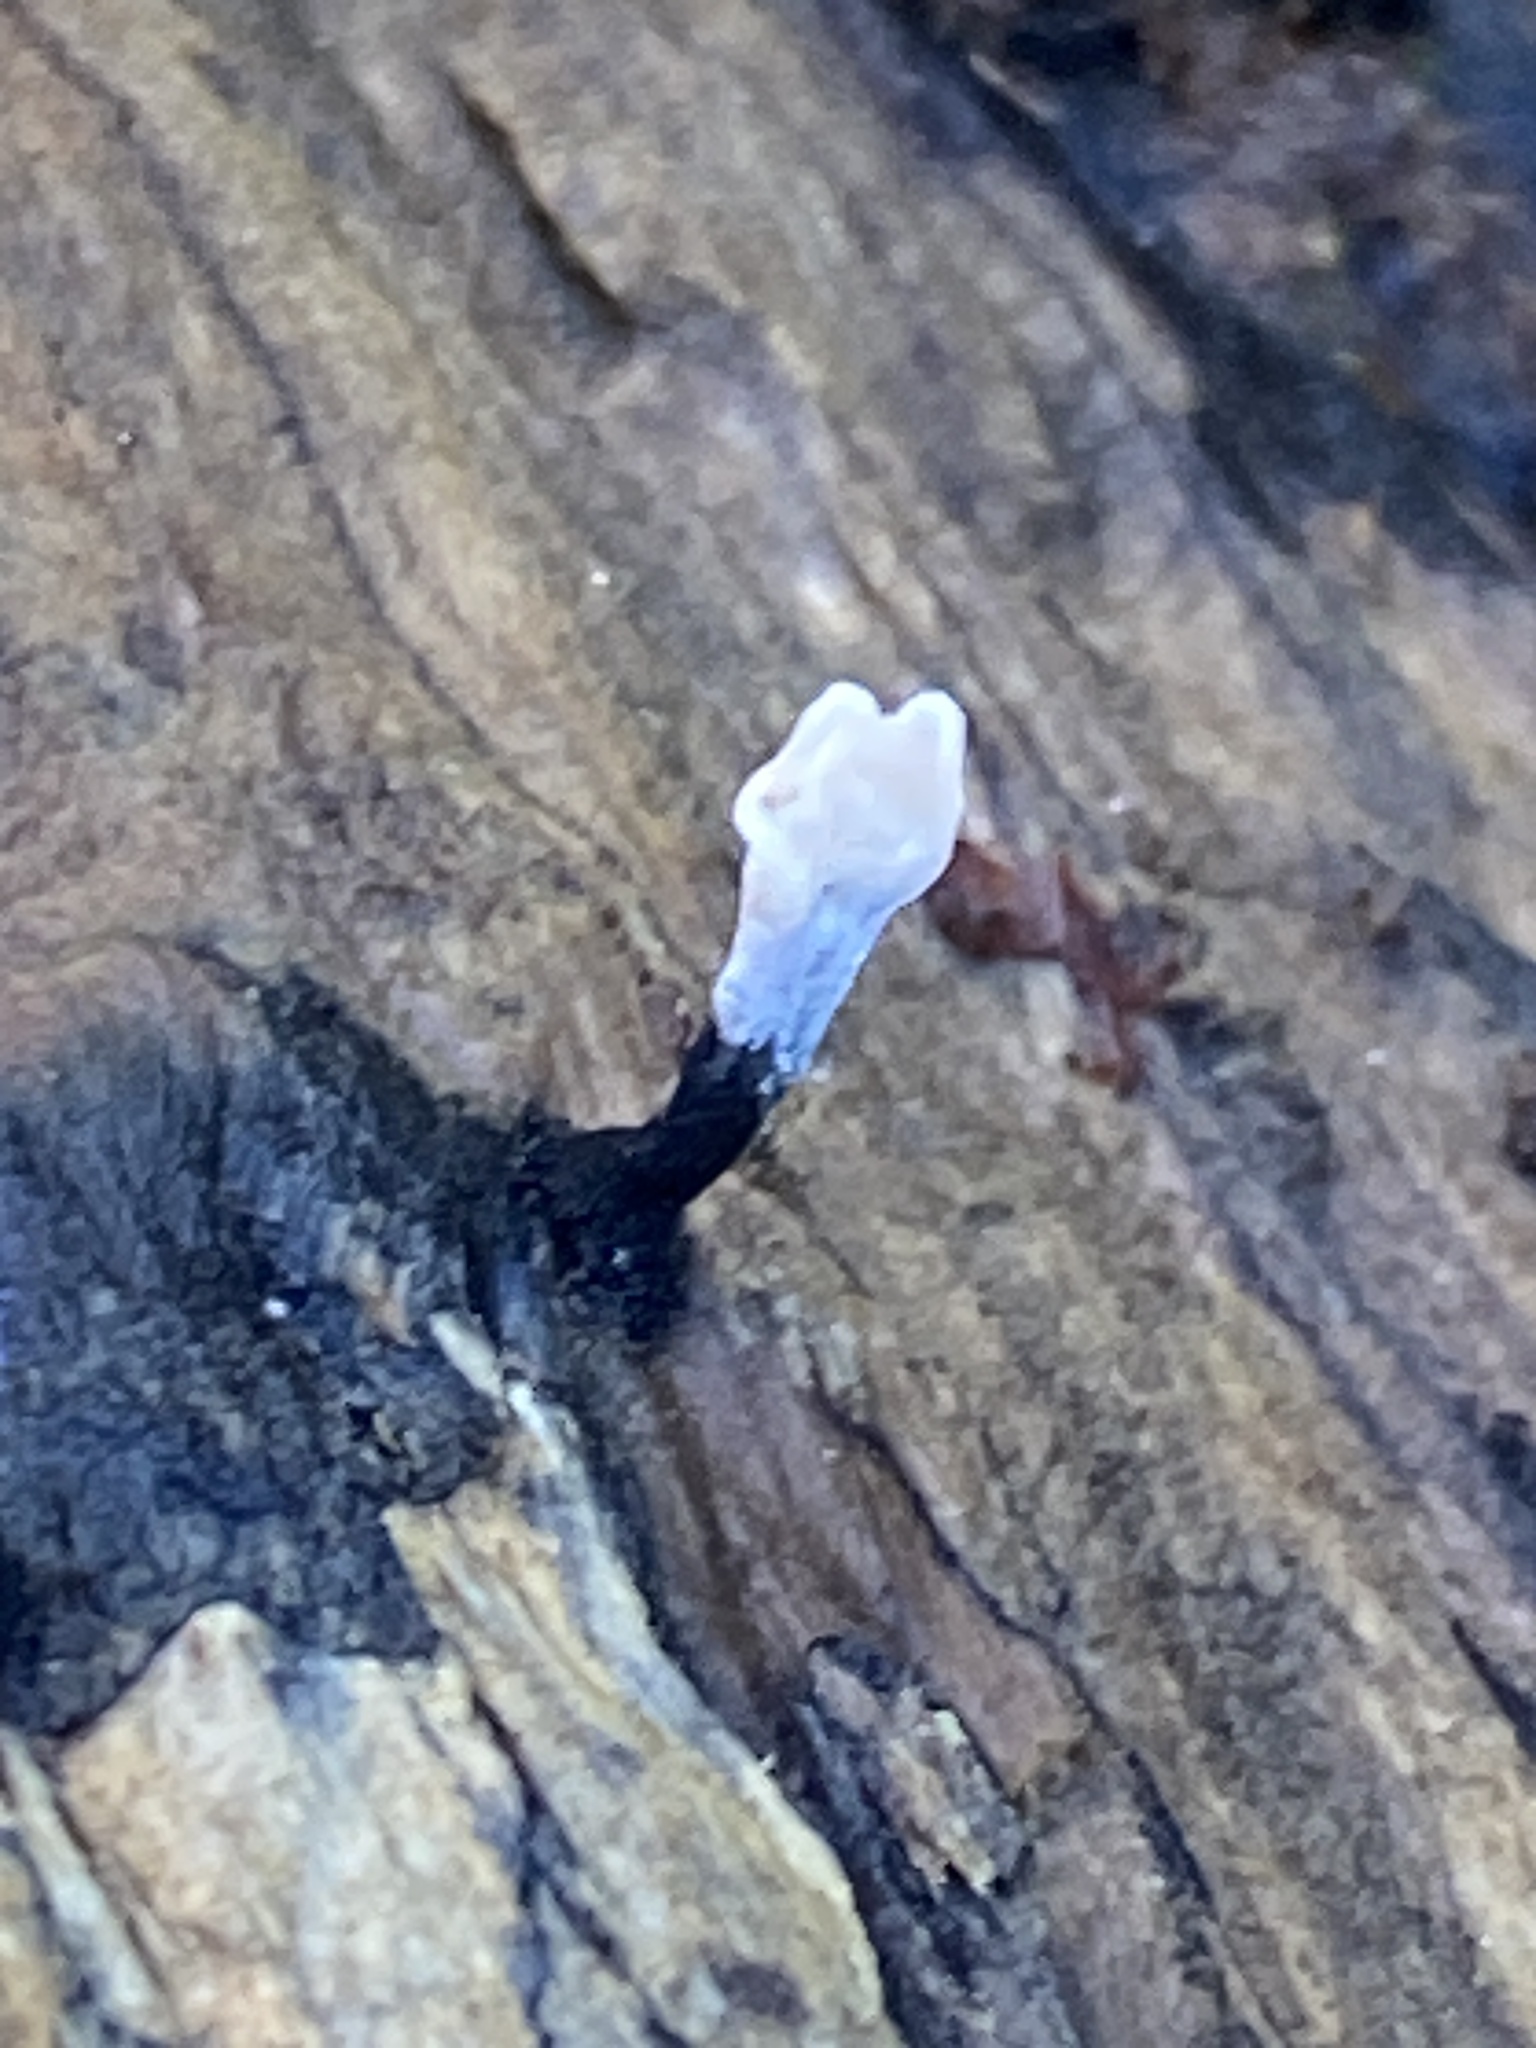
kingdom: Fungi
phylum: Ascomycota
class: Sordariomycetes
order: Xylariales
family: Xylariaceae
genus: Xylaria
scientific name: Xylaria hypoxylon
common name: Candle-snuff fungus
